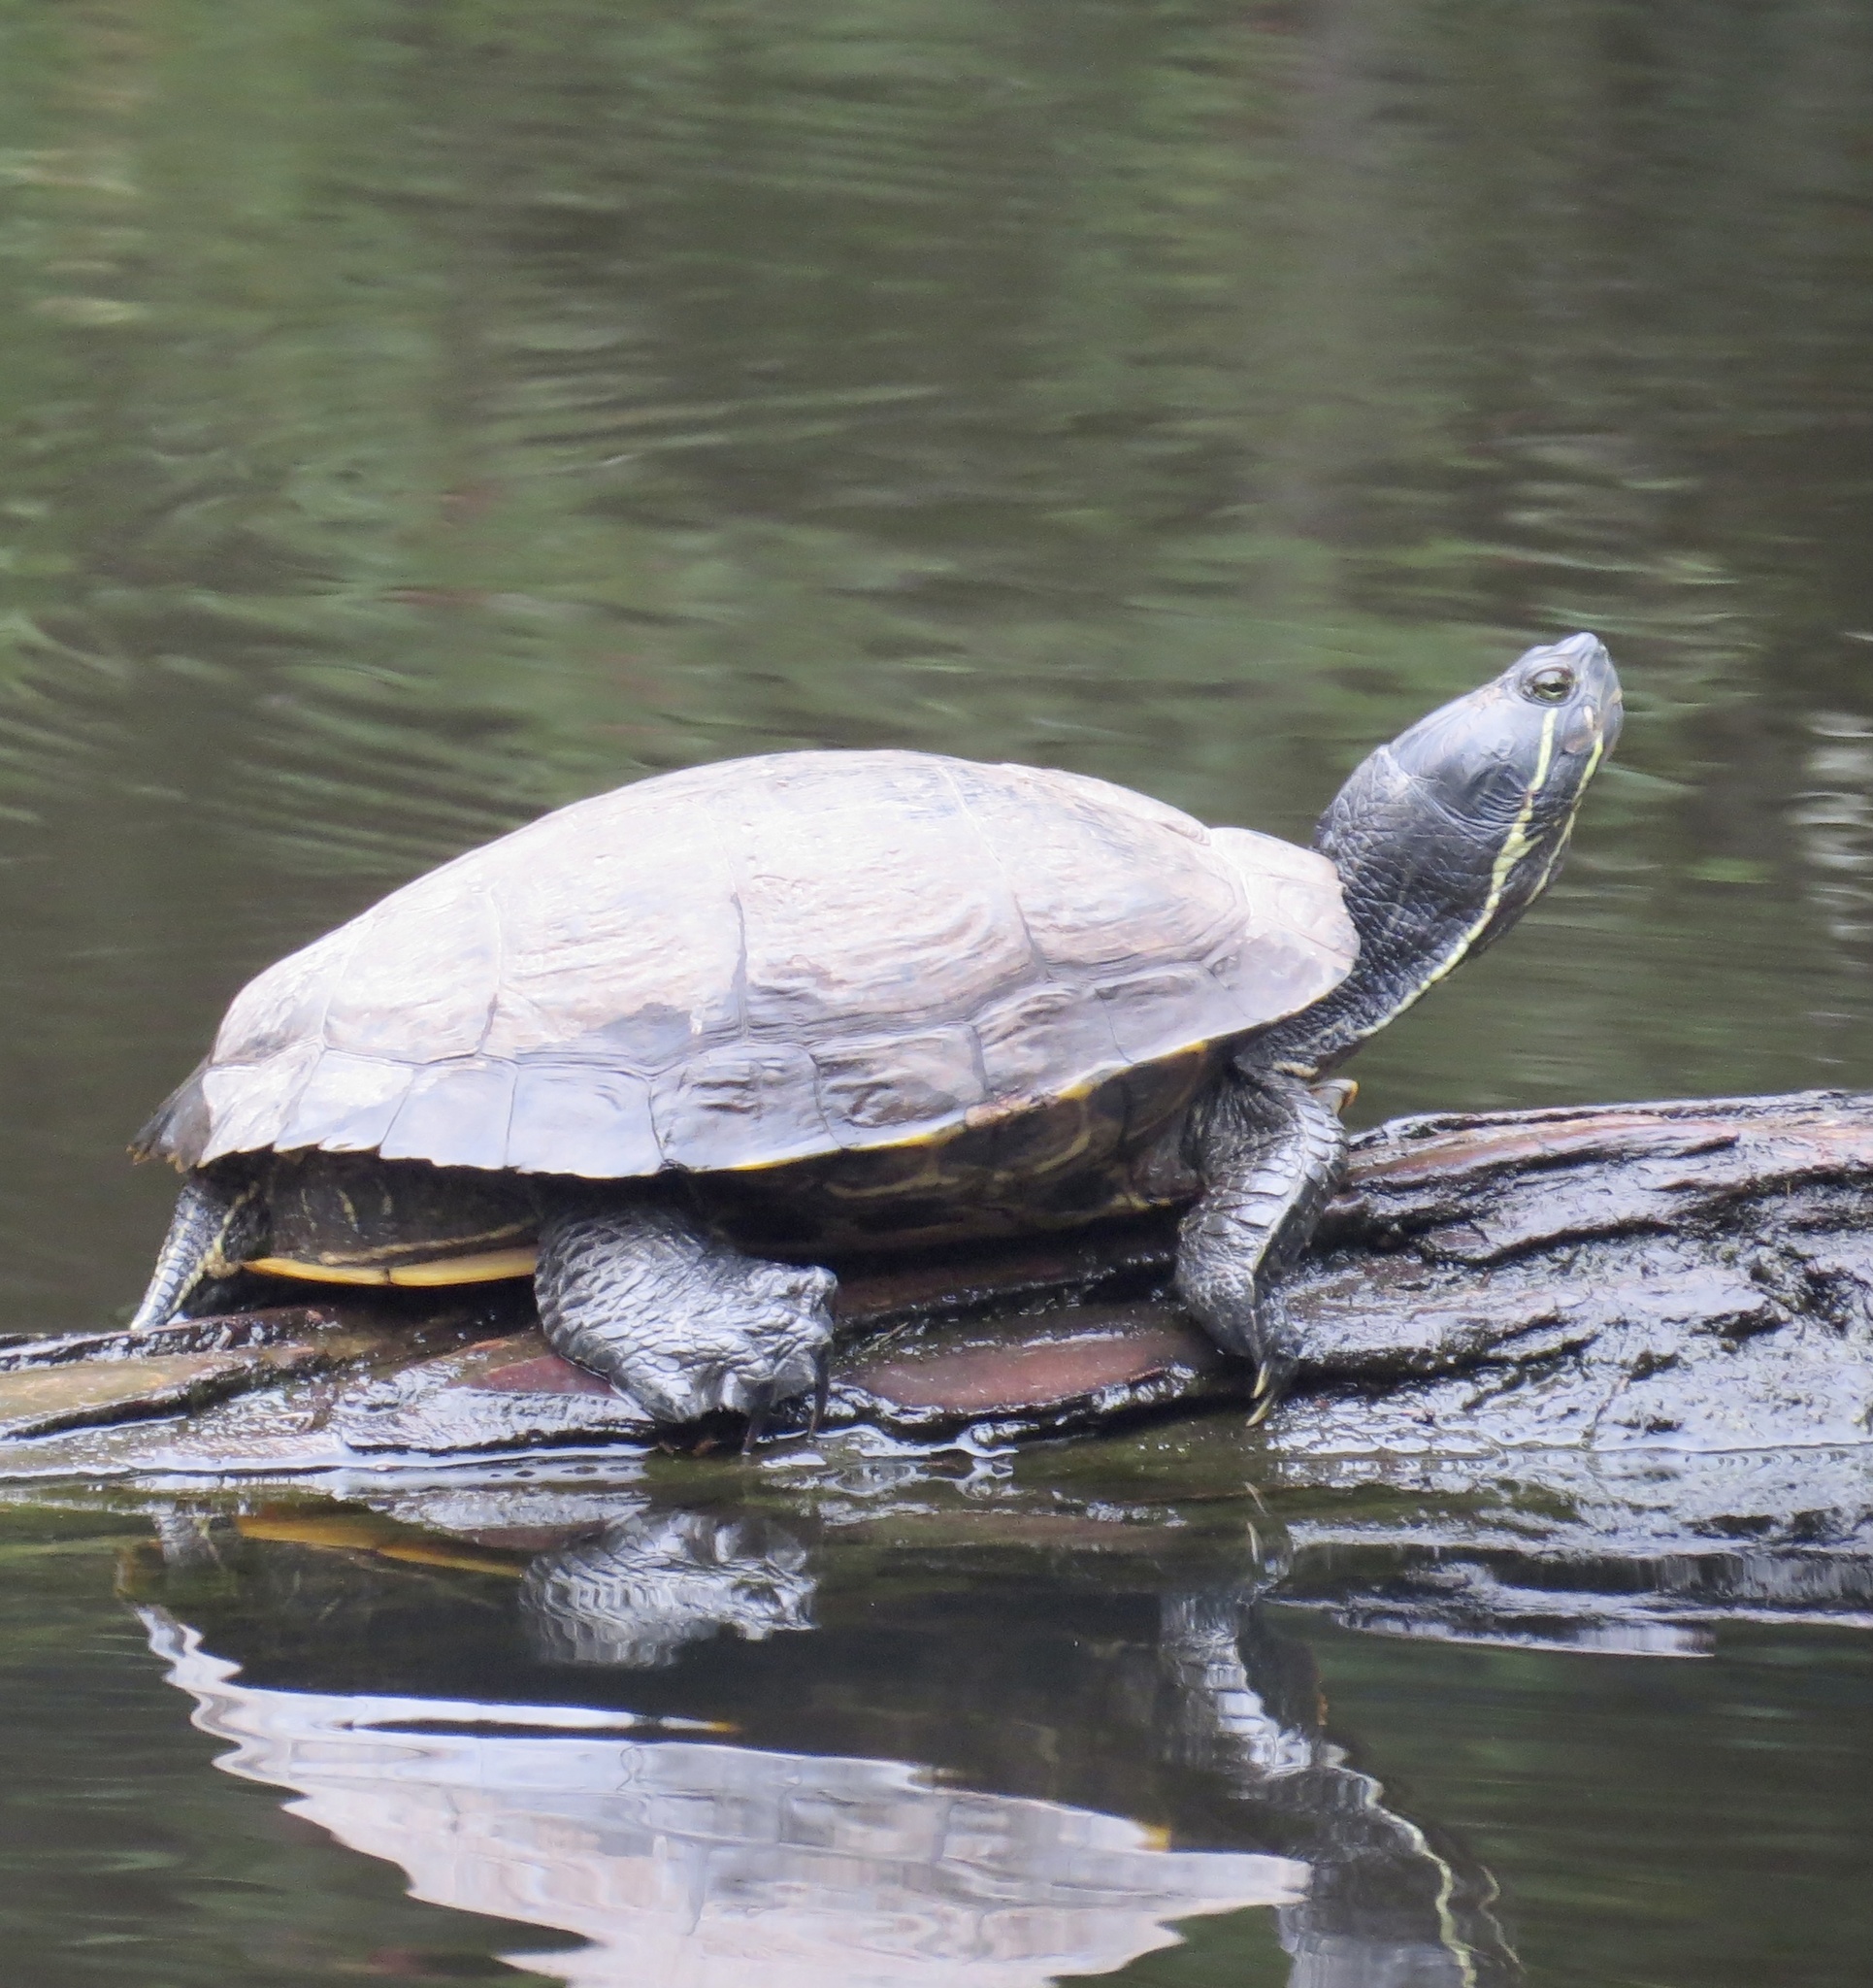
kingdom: Animalia
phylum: Chordata
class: Testudines
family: Emydidae
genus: Trachemys
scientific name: Trachemys scripta
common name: Slider
